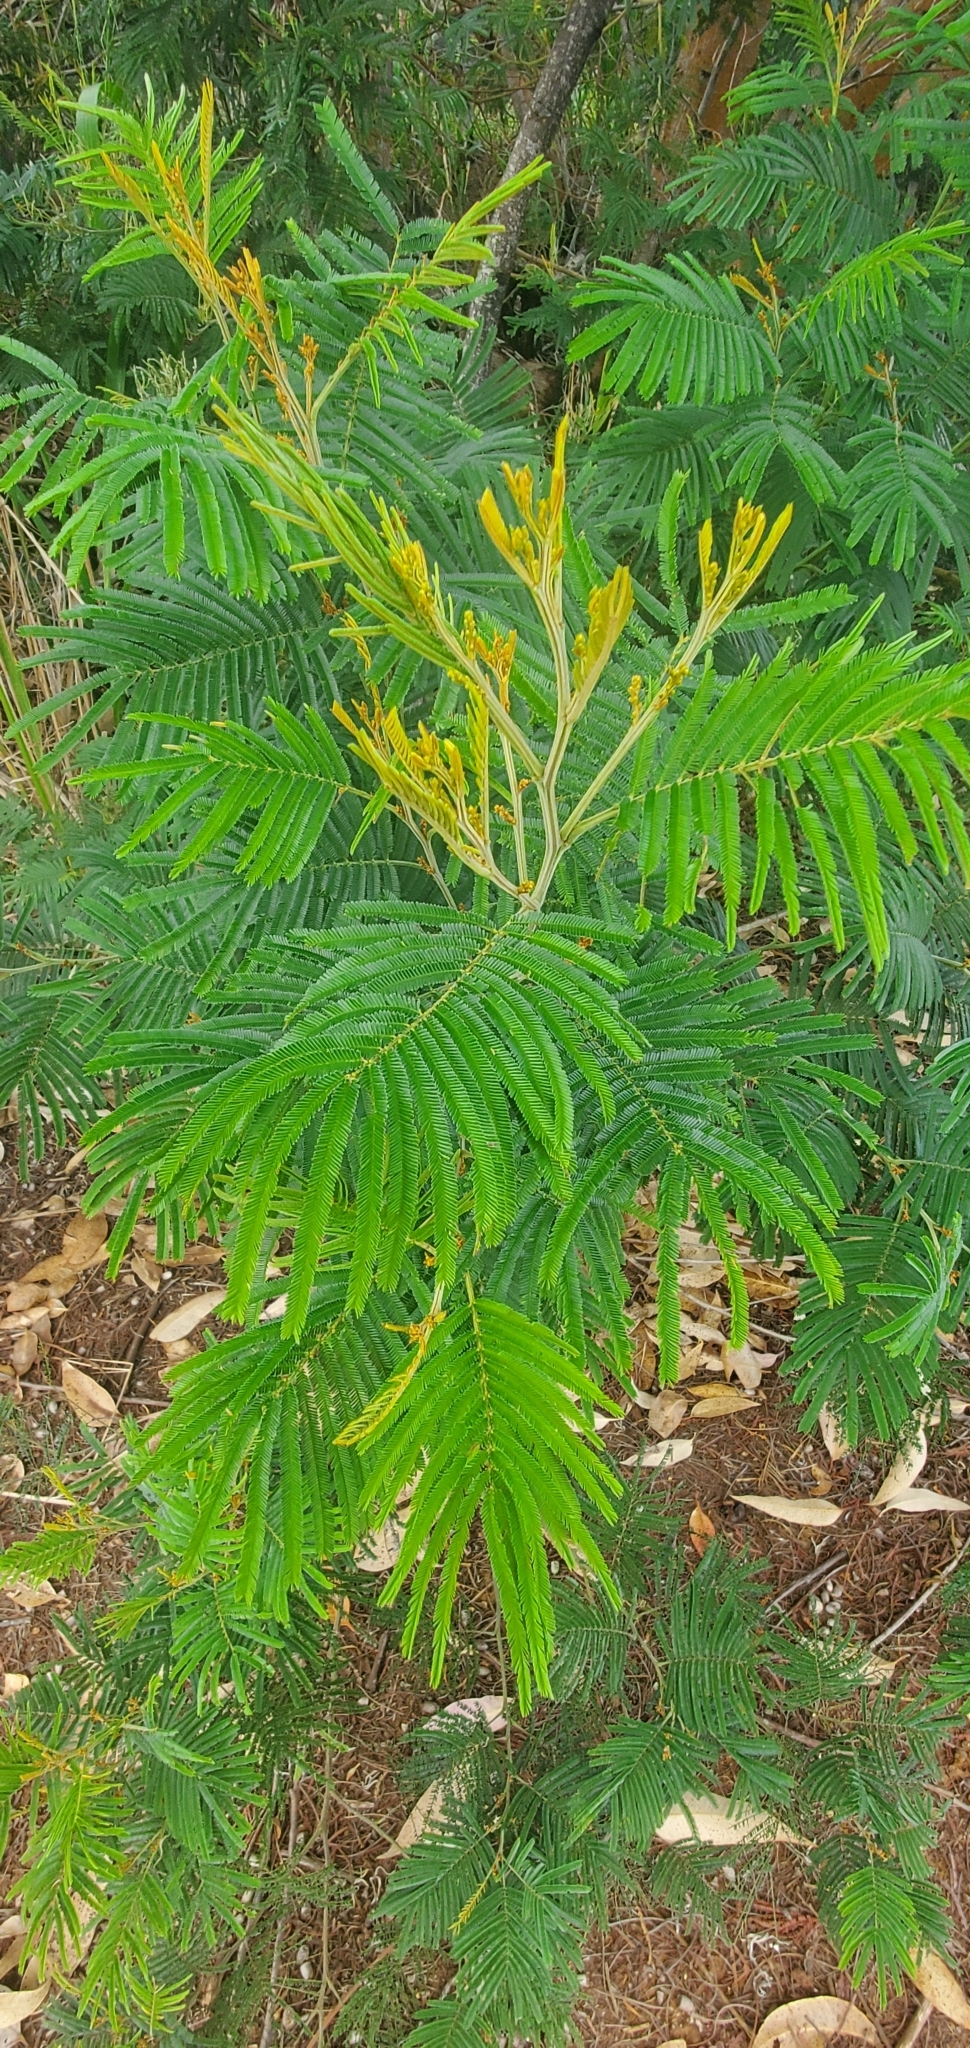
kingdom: Plantae
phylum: Tracheophyta
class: Magnoliopsida
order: Fabales
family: Fabaceae
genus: Acacia
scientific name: Acacia mearnsii
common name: Black wattle
